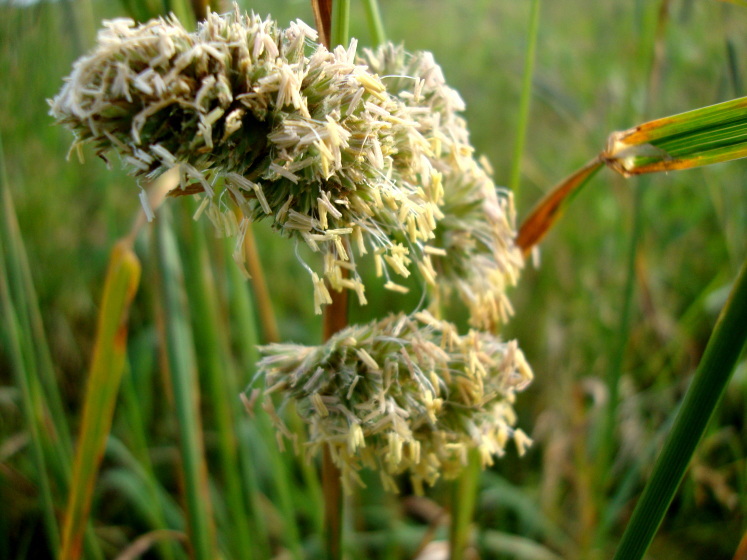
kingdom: Plantae
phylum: Tracheophyta
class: Liliopsida
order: Poales
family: Poaceae
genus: Dactylis
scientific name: Dactylis glomerata
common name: Orchardgrass
